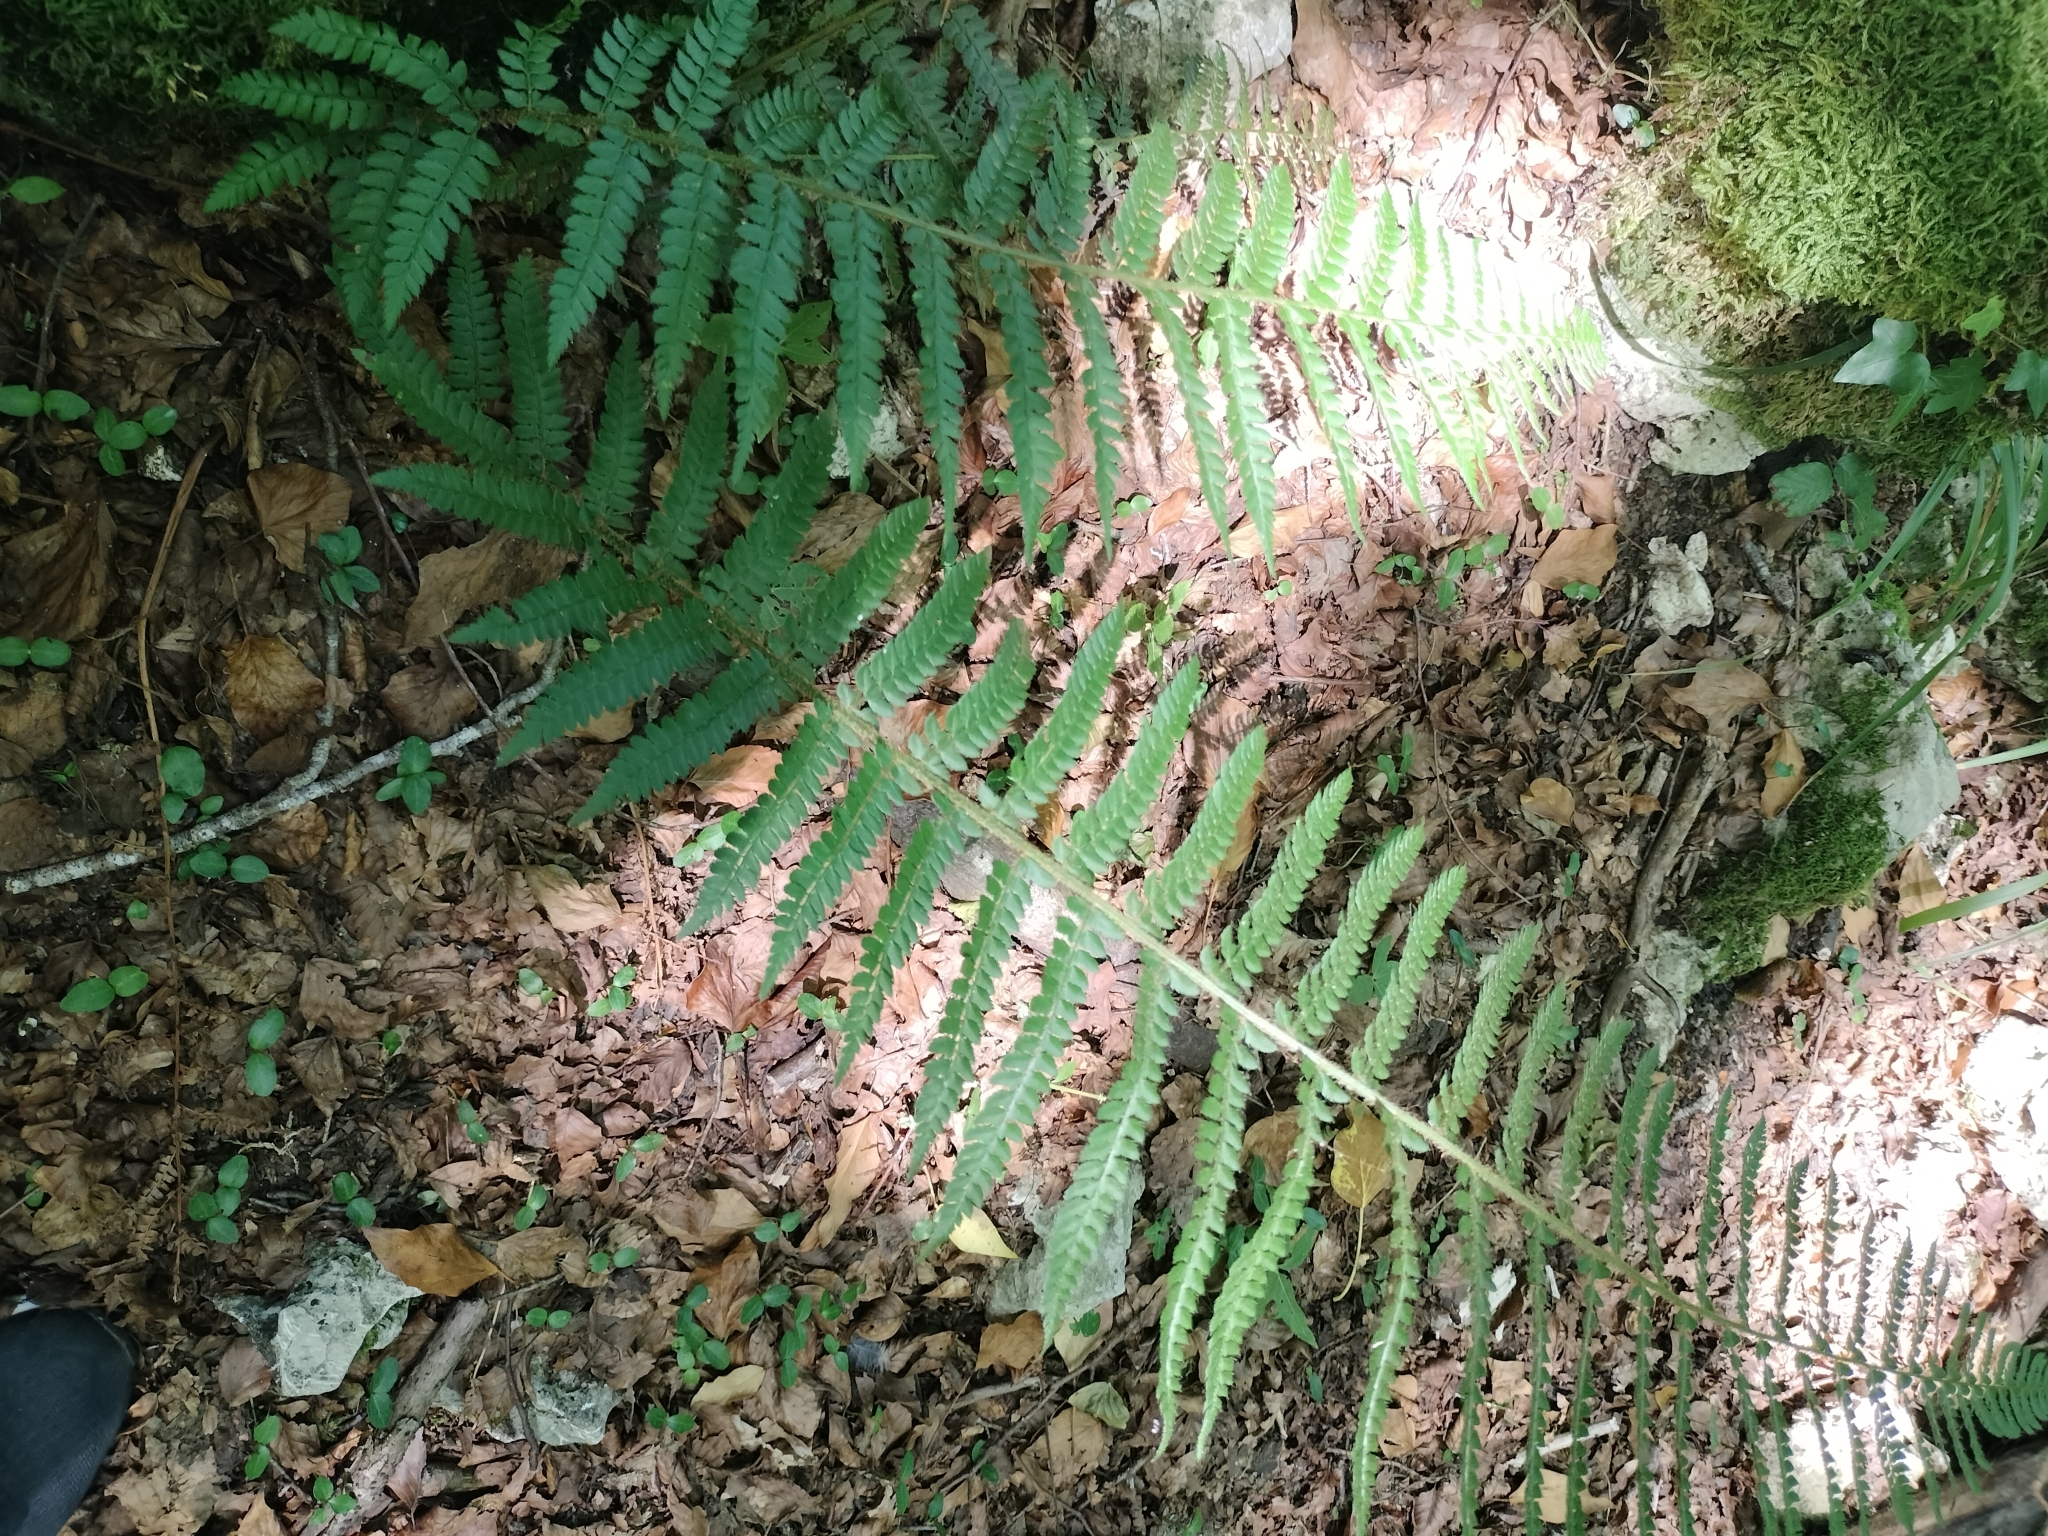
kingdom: Plantae
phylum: Tracheophyta
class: Polypodiopsida
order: Polypodiales
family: Dryopteridaceae
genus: Polystichum
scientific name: Polystichum setiferum
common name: Soft shield-fern
